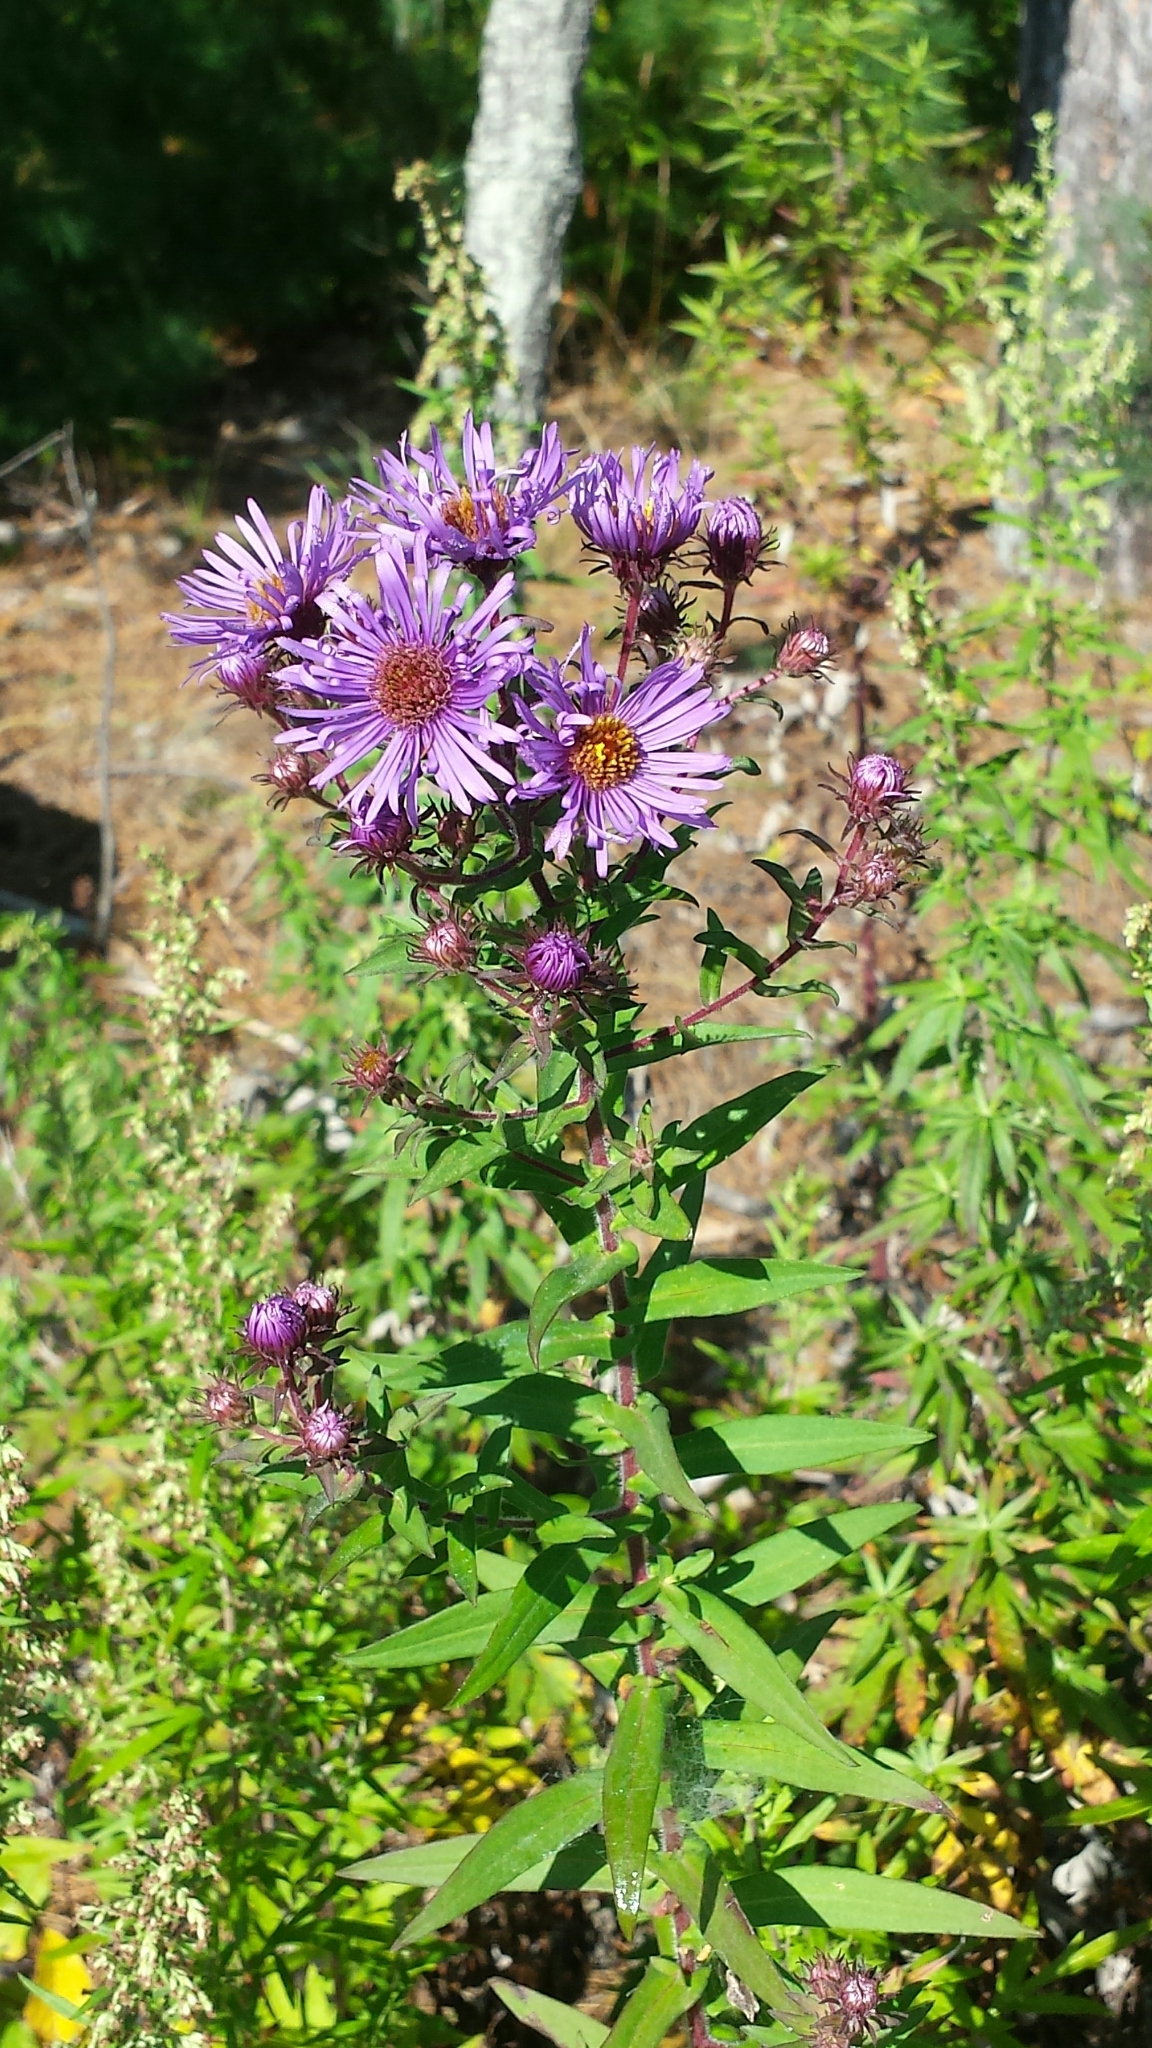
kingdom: Plantae
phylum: Tracheophyta
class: Magnoliopsida
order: Asterales
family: Asteraceae
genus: Symphyotrichum
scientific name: Symphyotrichum novae-angliae
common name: Michaelmas daisy
